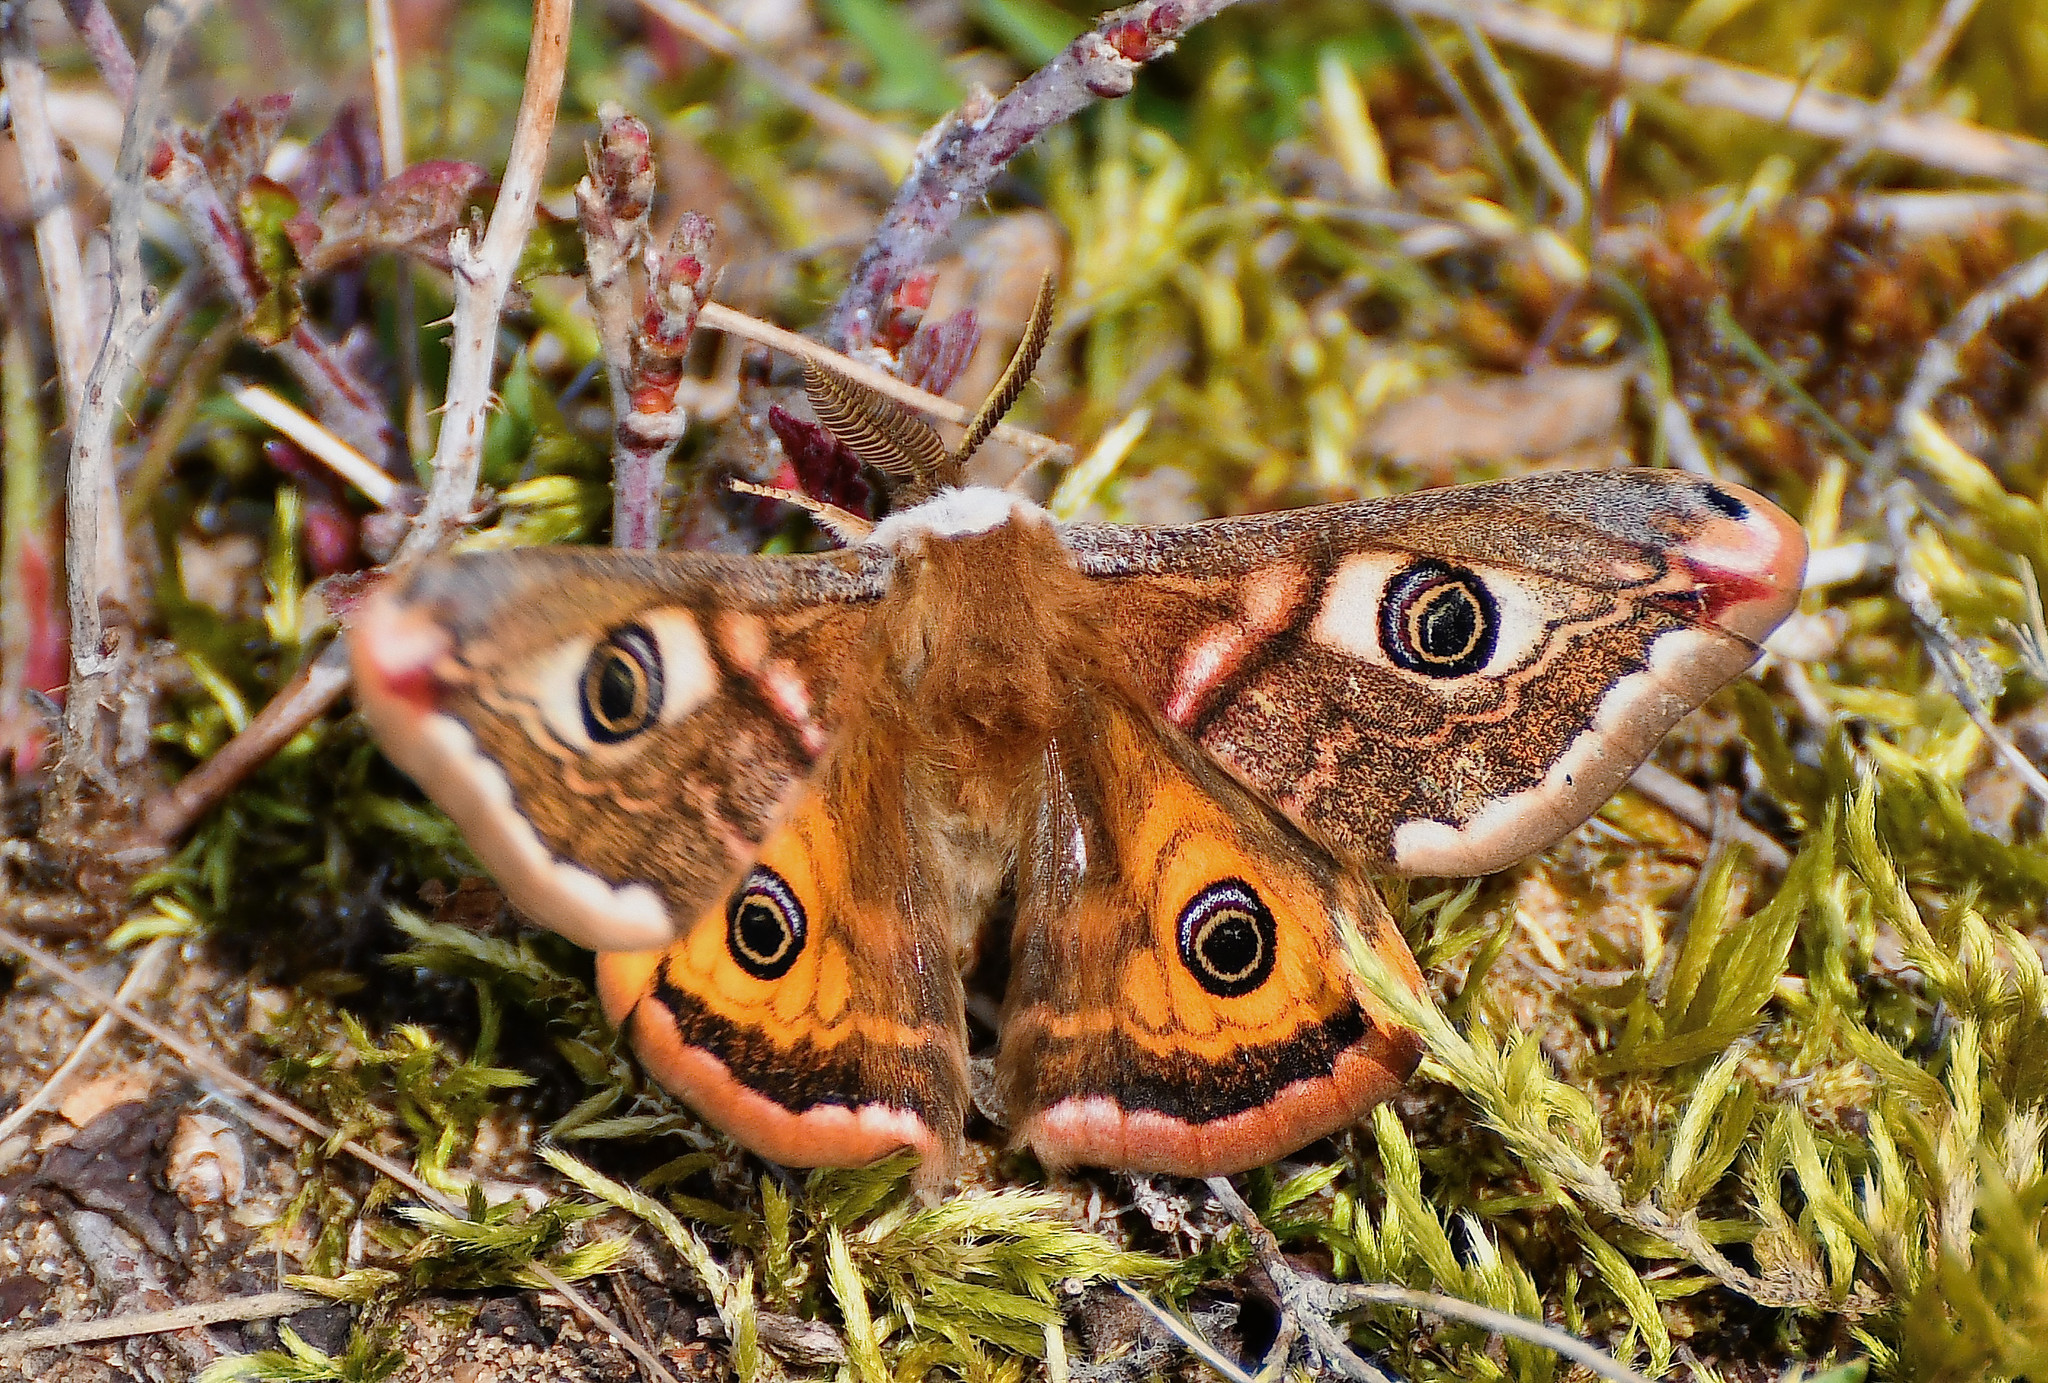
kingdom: Animalia
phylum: Arthropoda
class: Insecta
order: Lepidoptera
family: Saturniidae
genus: Saturnia
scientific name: Saturnia pavonia
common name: Emperor moth
